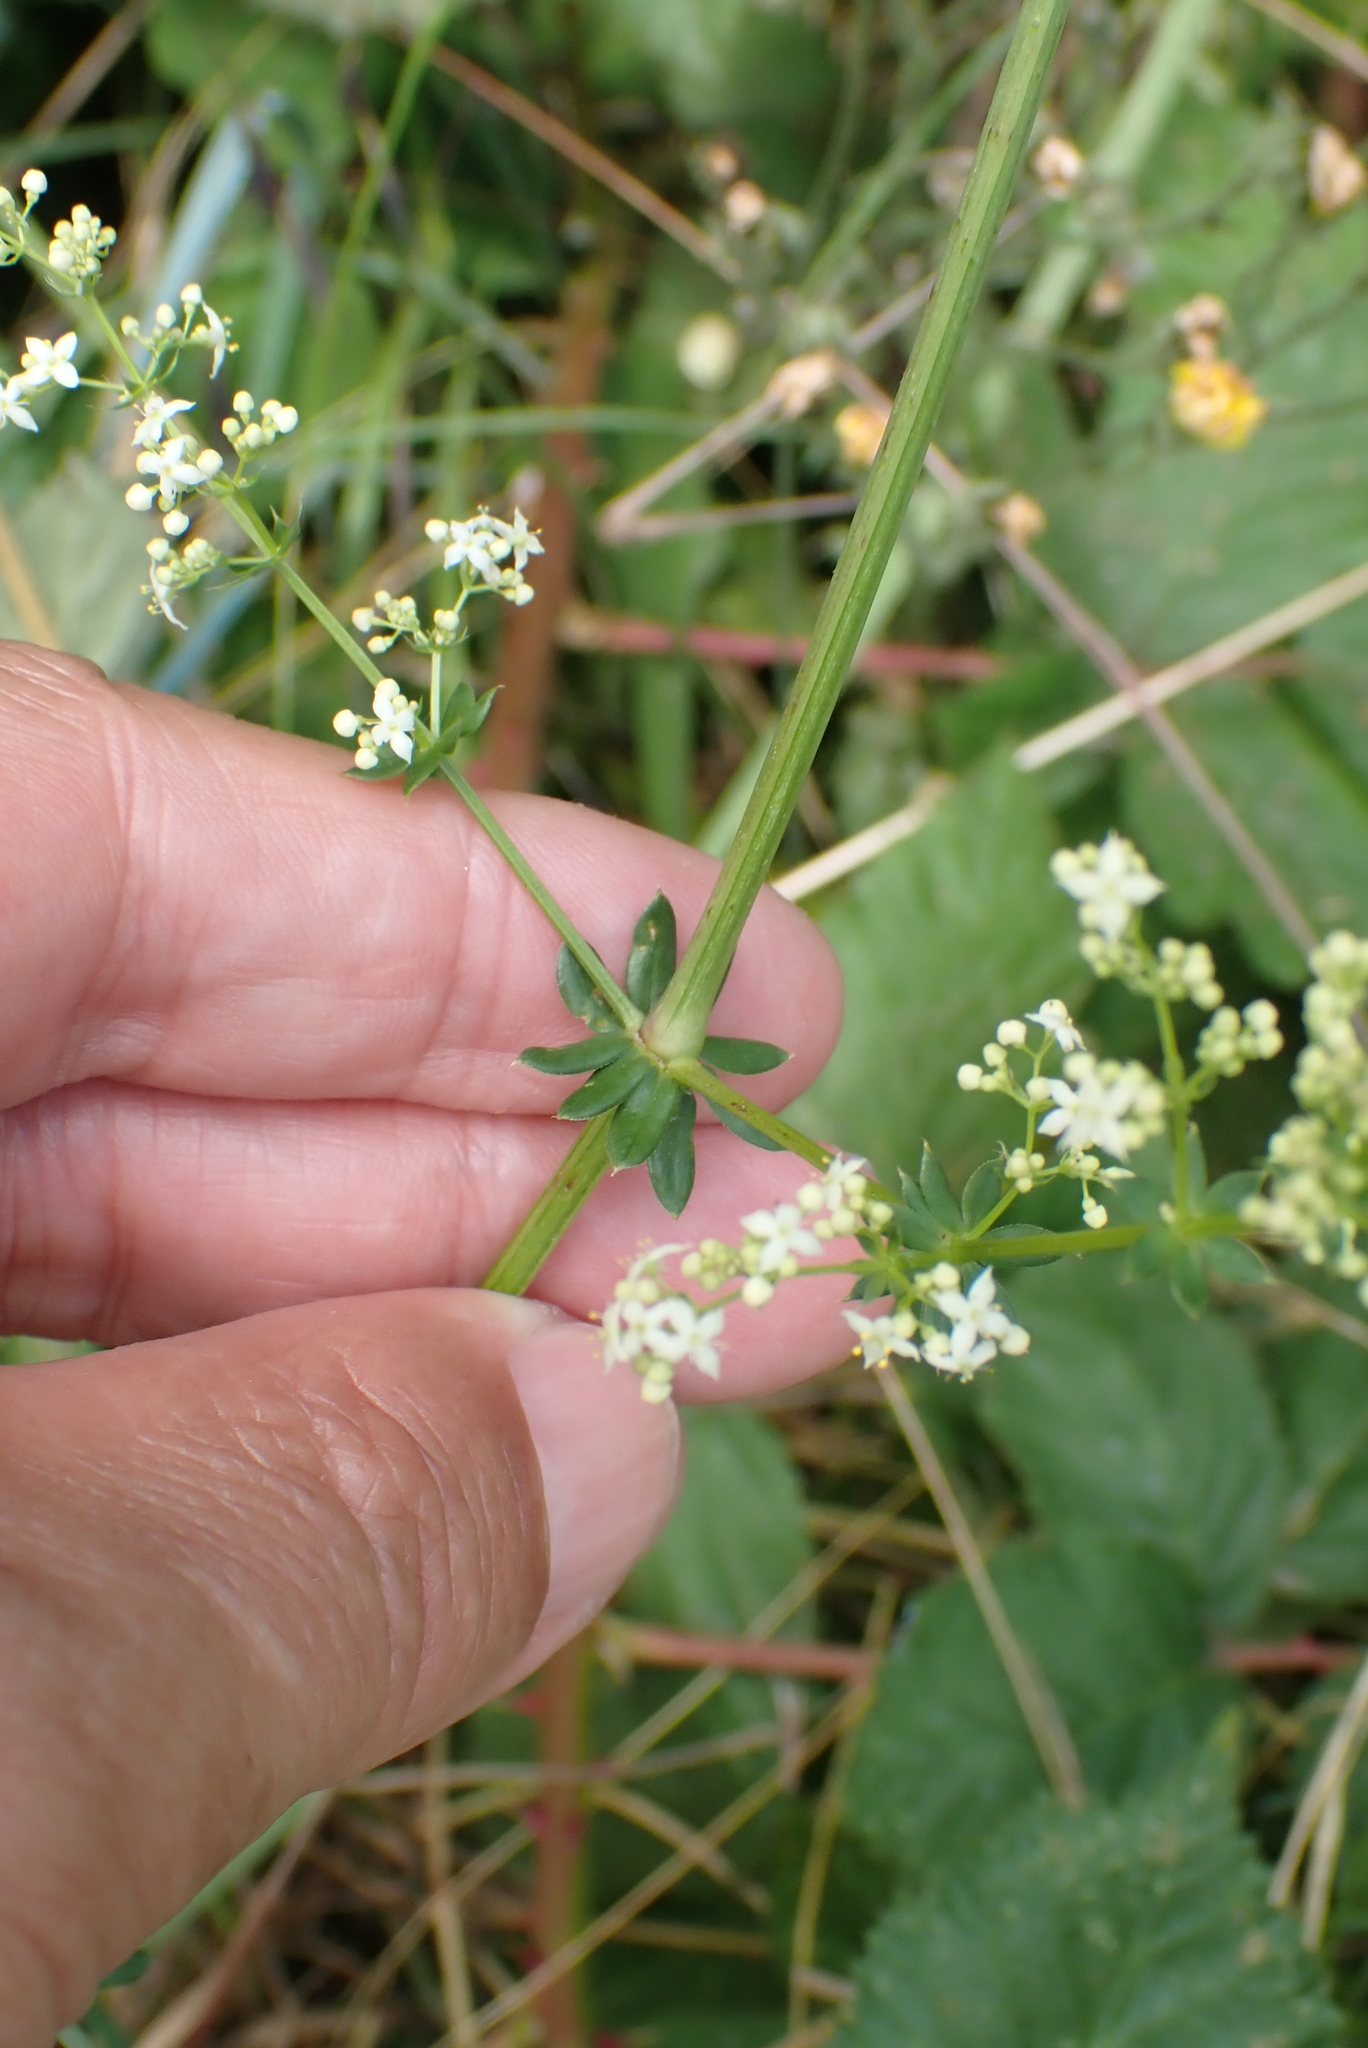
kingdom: Plantae
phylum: Tracheophyta
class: Magnoliopsida
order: Gentianales
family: Rubiaceae
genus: Galium
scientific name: Galium album
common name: White bedstraw
